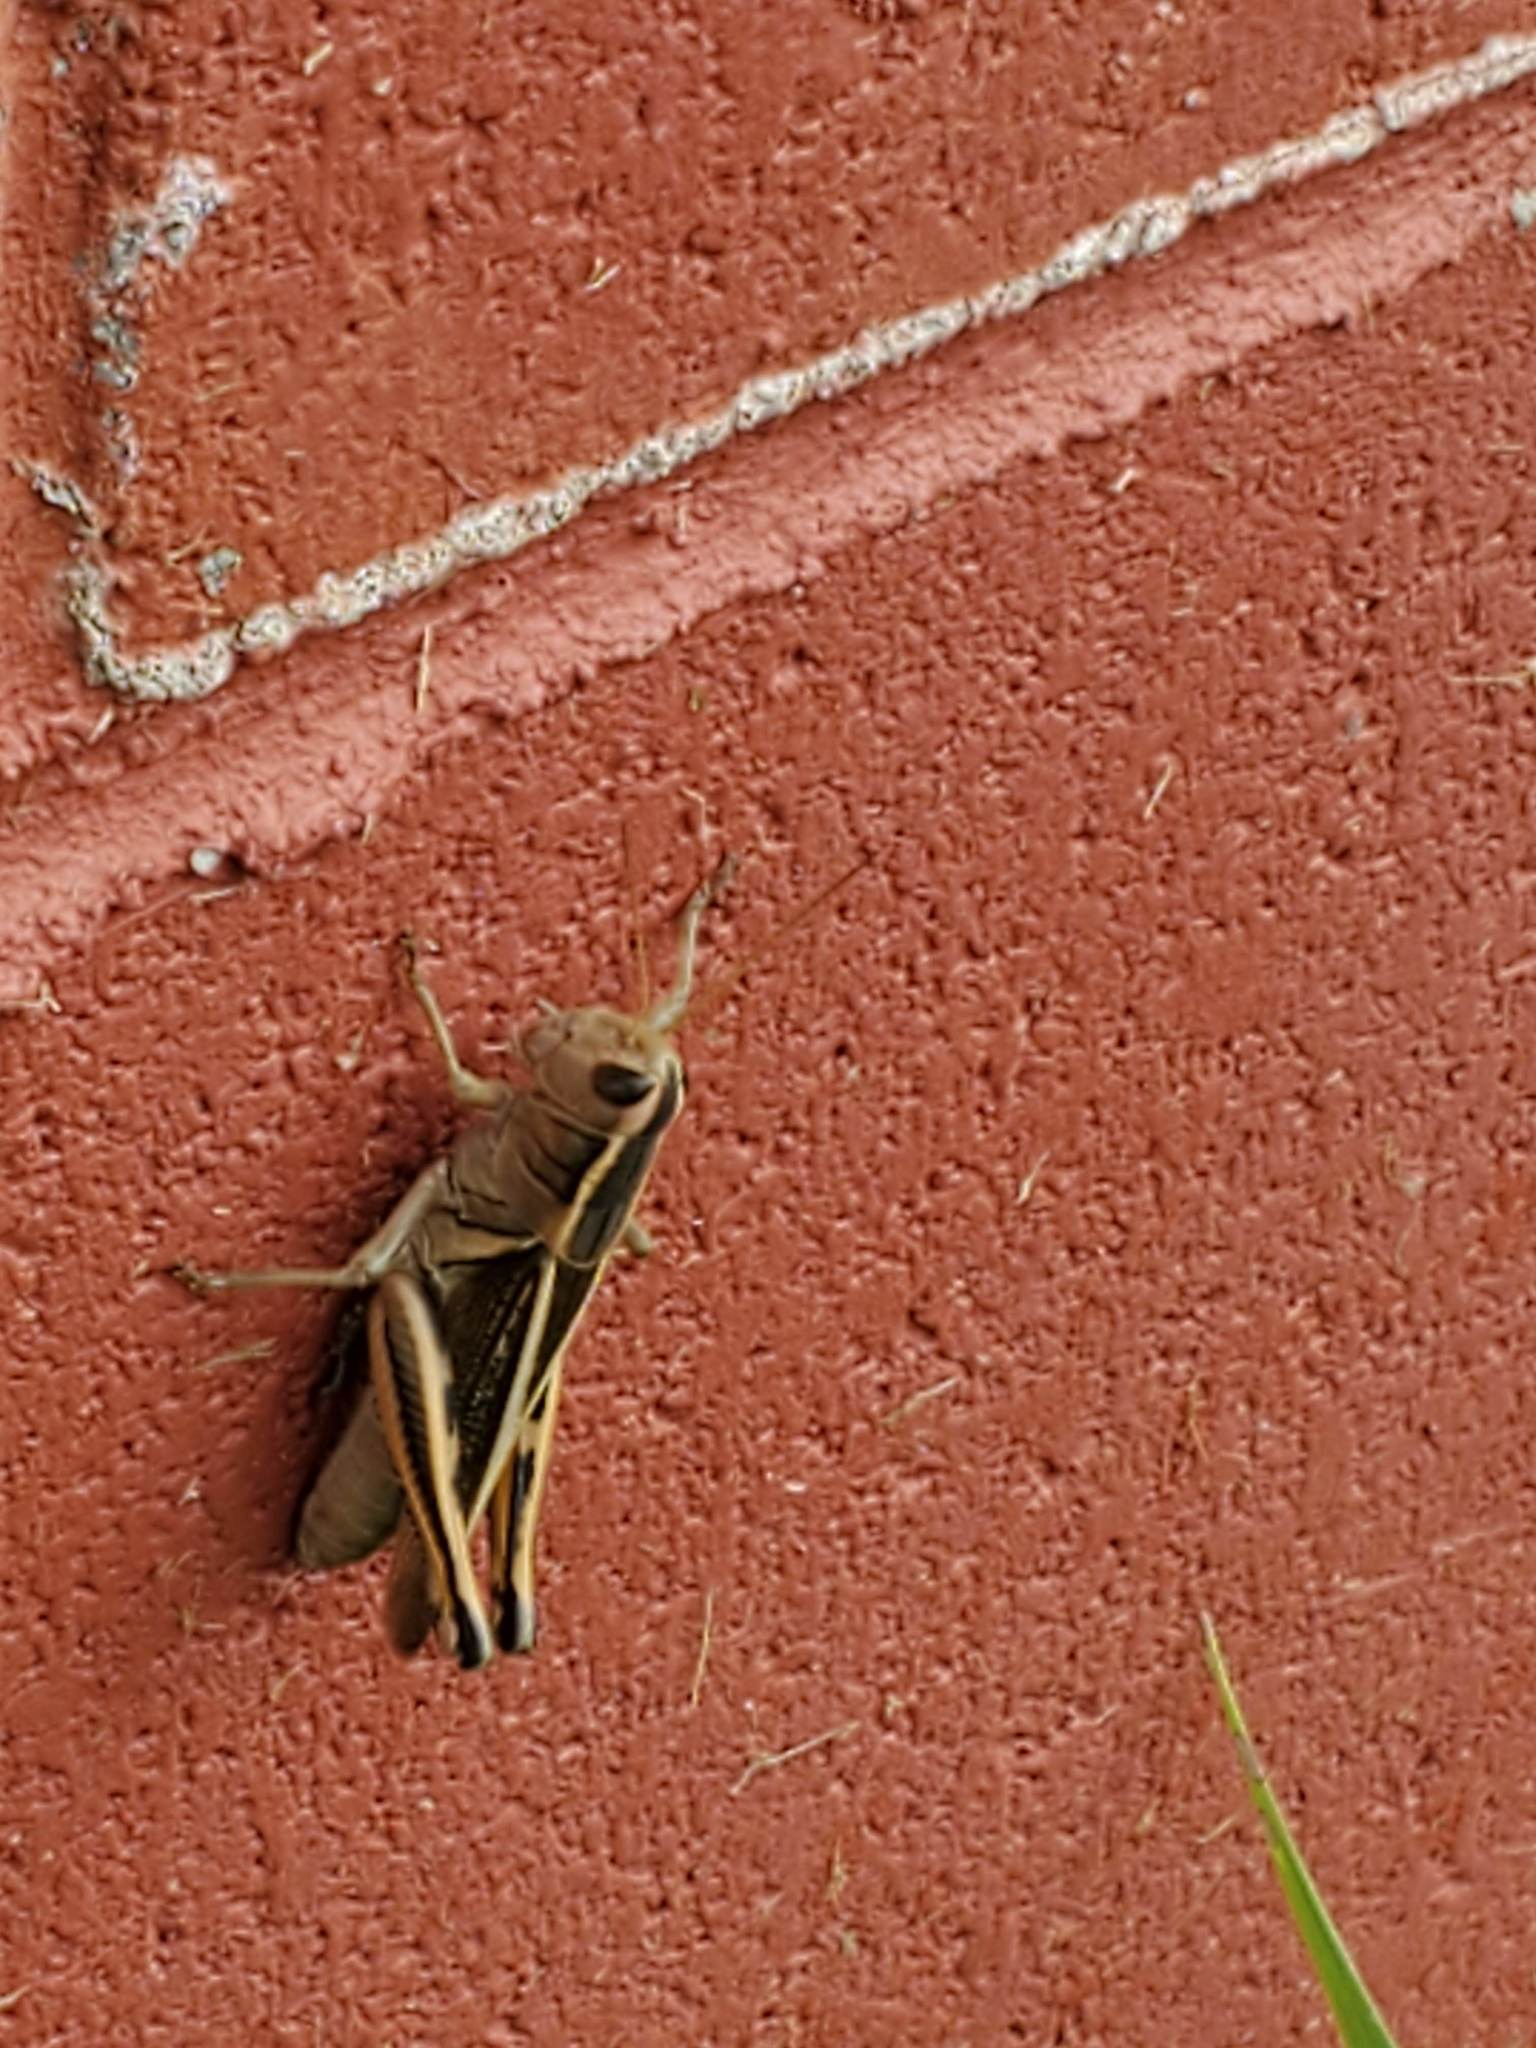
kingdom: Animalia
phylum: Arthropoda
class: Insecta
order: Orthoptera
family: Acrididae
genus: Melanoplus
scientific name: Melanoplus bivittatus
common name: Two-striped grasshopper
